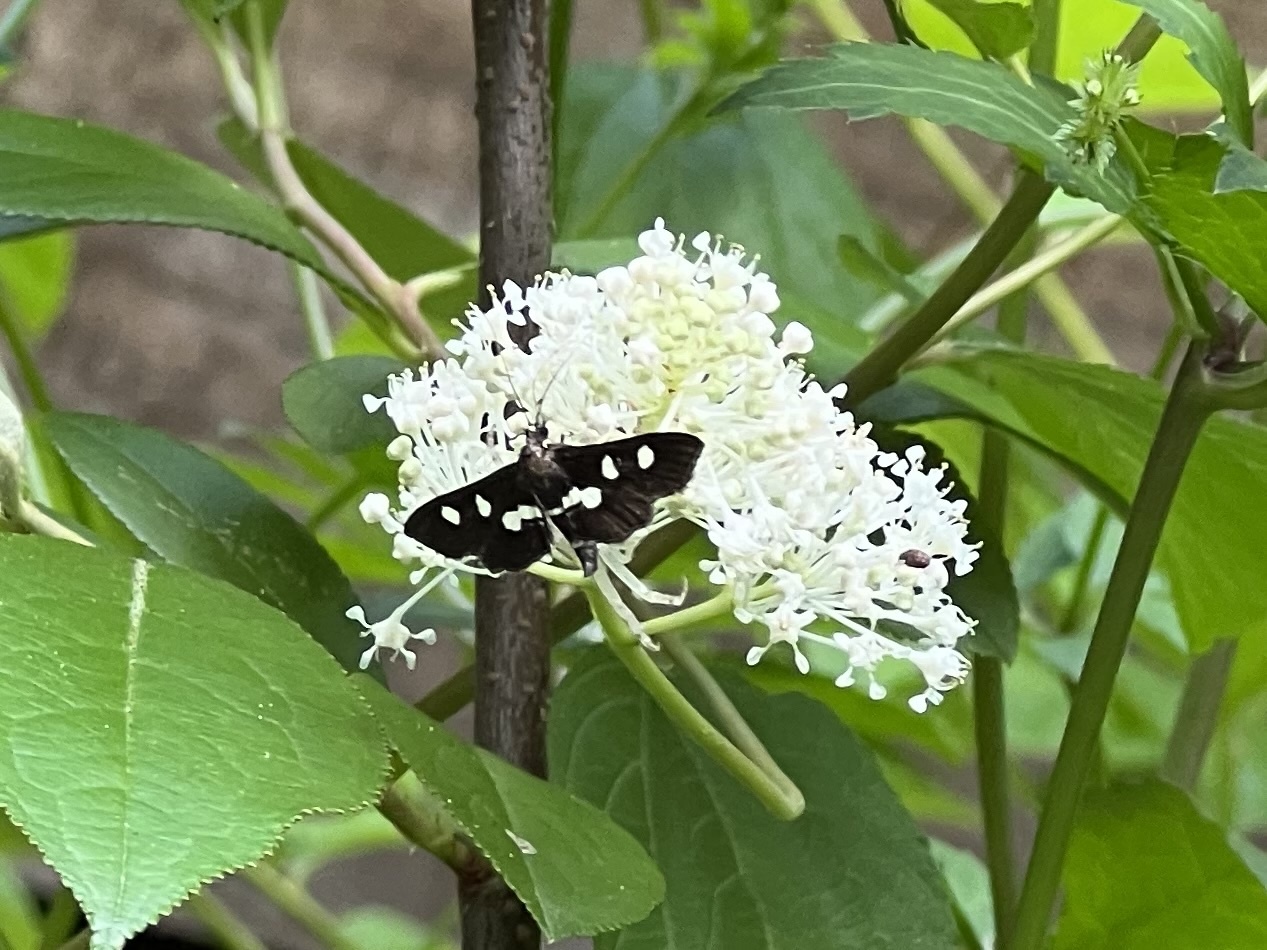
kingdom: Animalia
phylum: Arthropoda
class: Insecta
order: Lepidoptera
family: Crambidae
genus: Desmia
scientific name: Desmia funeralis
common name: Grape leaf folder moth
